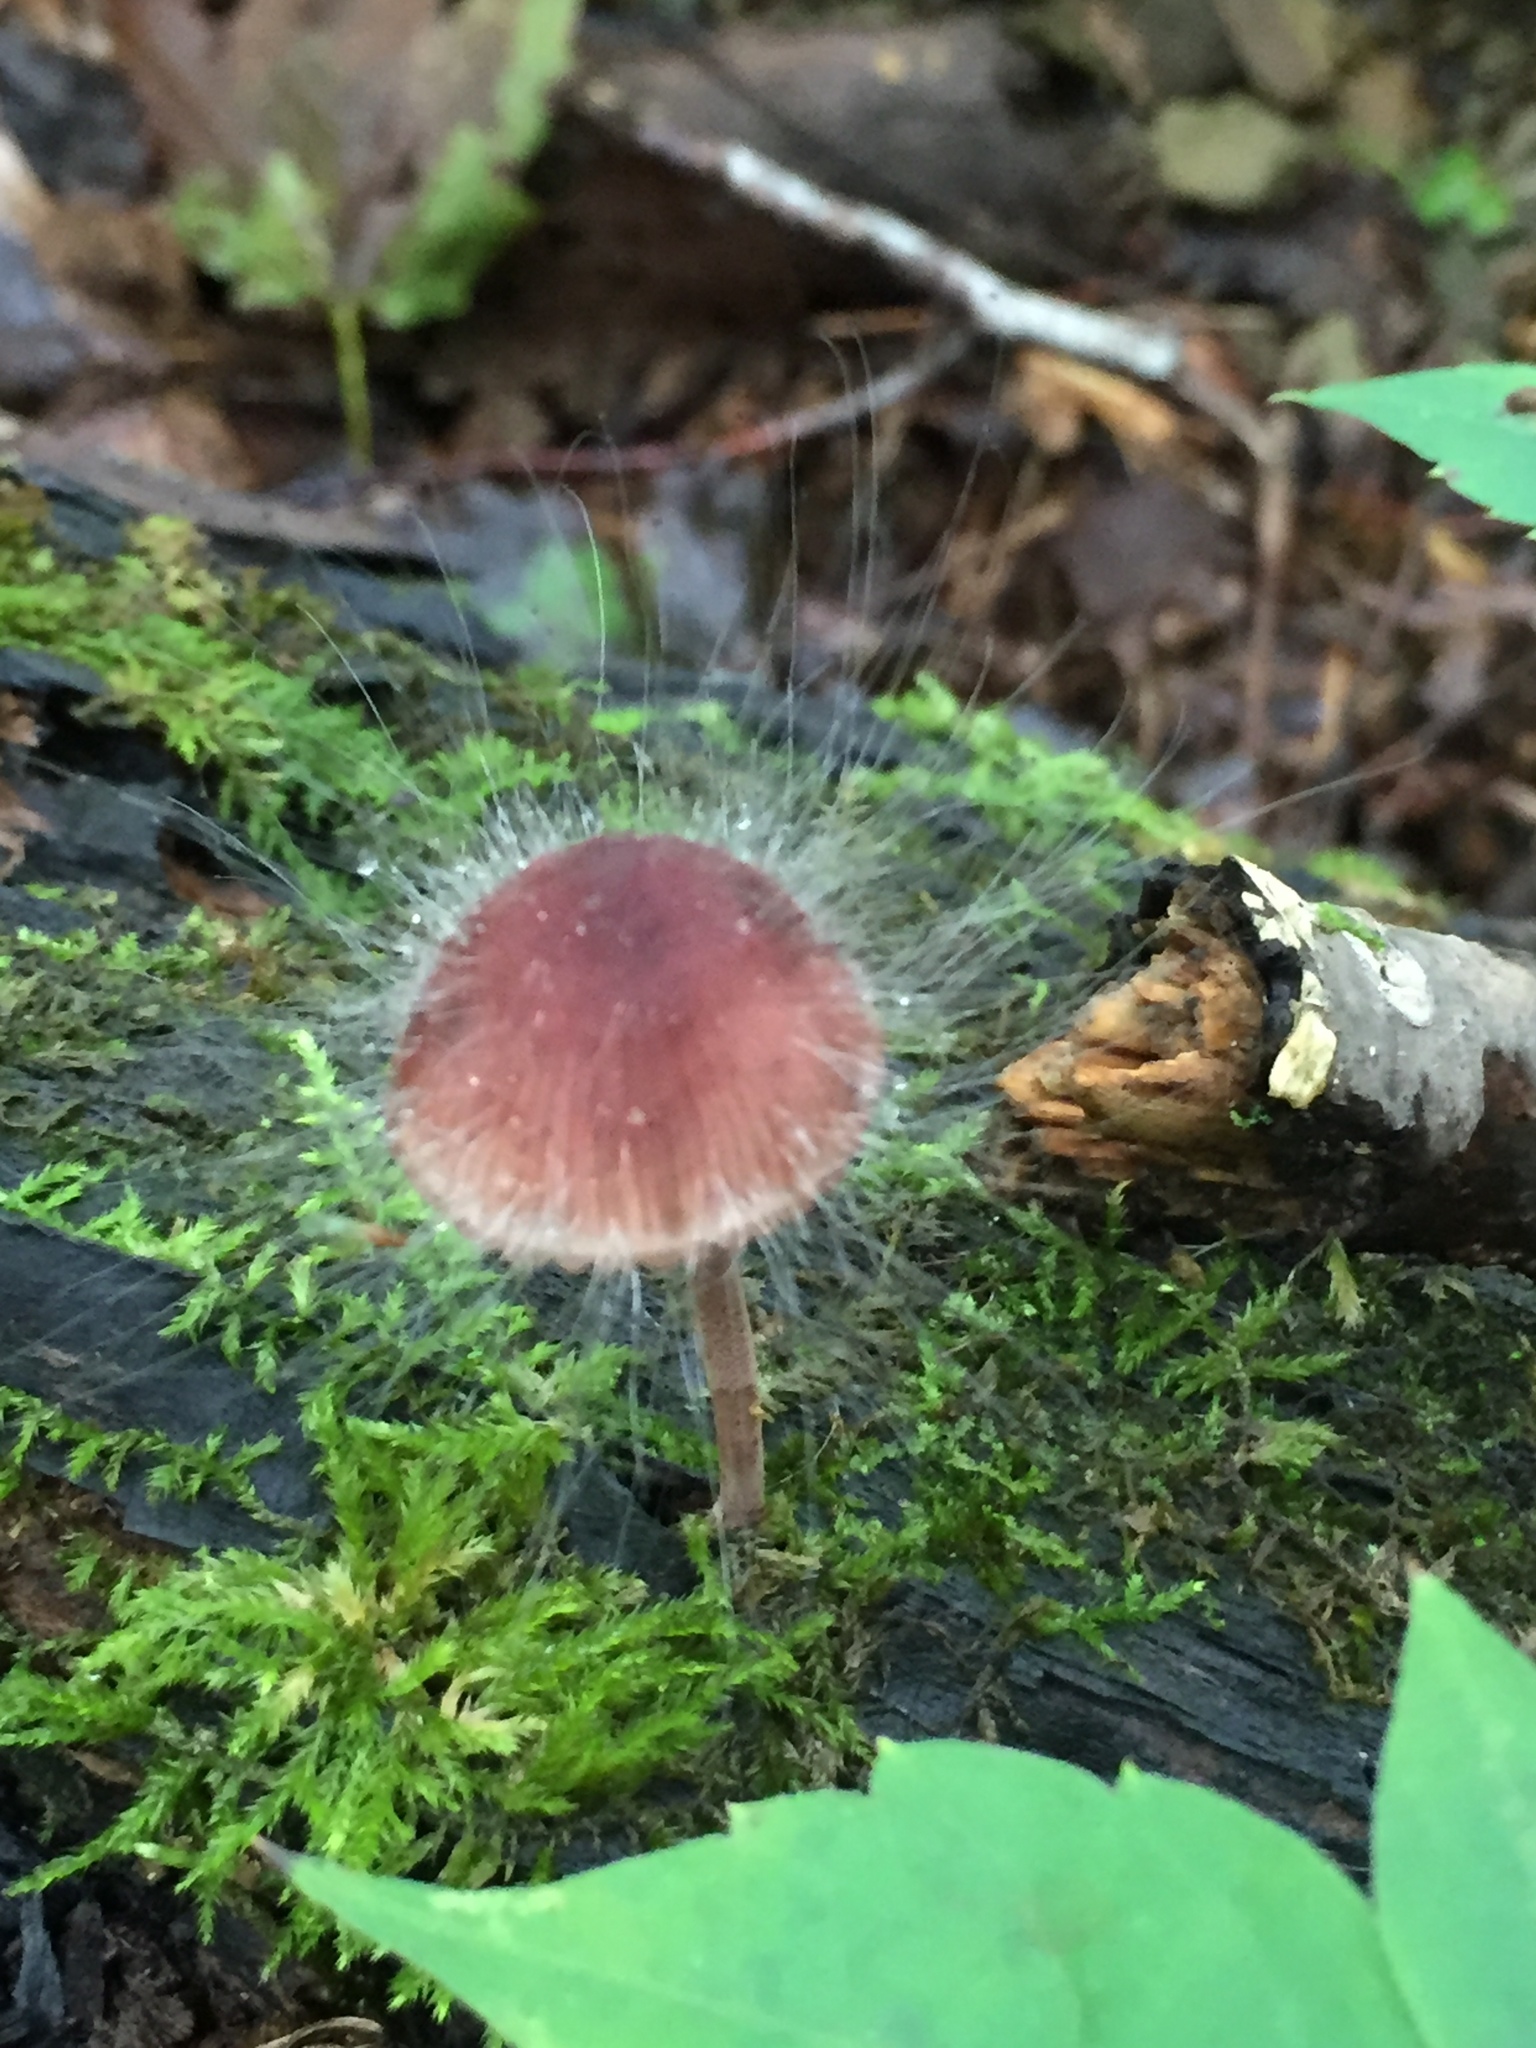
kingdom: Fungi
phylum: Mucoromycota
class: Mucoromycetes
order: Mucorales
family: Phycomycetaceae
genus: Spinellus
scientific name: Spinellus fusiger
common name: Bonnet mould
